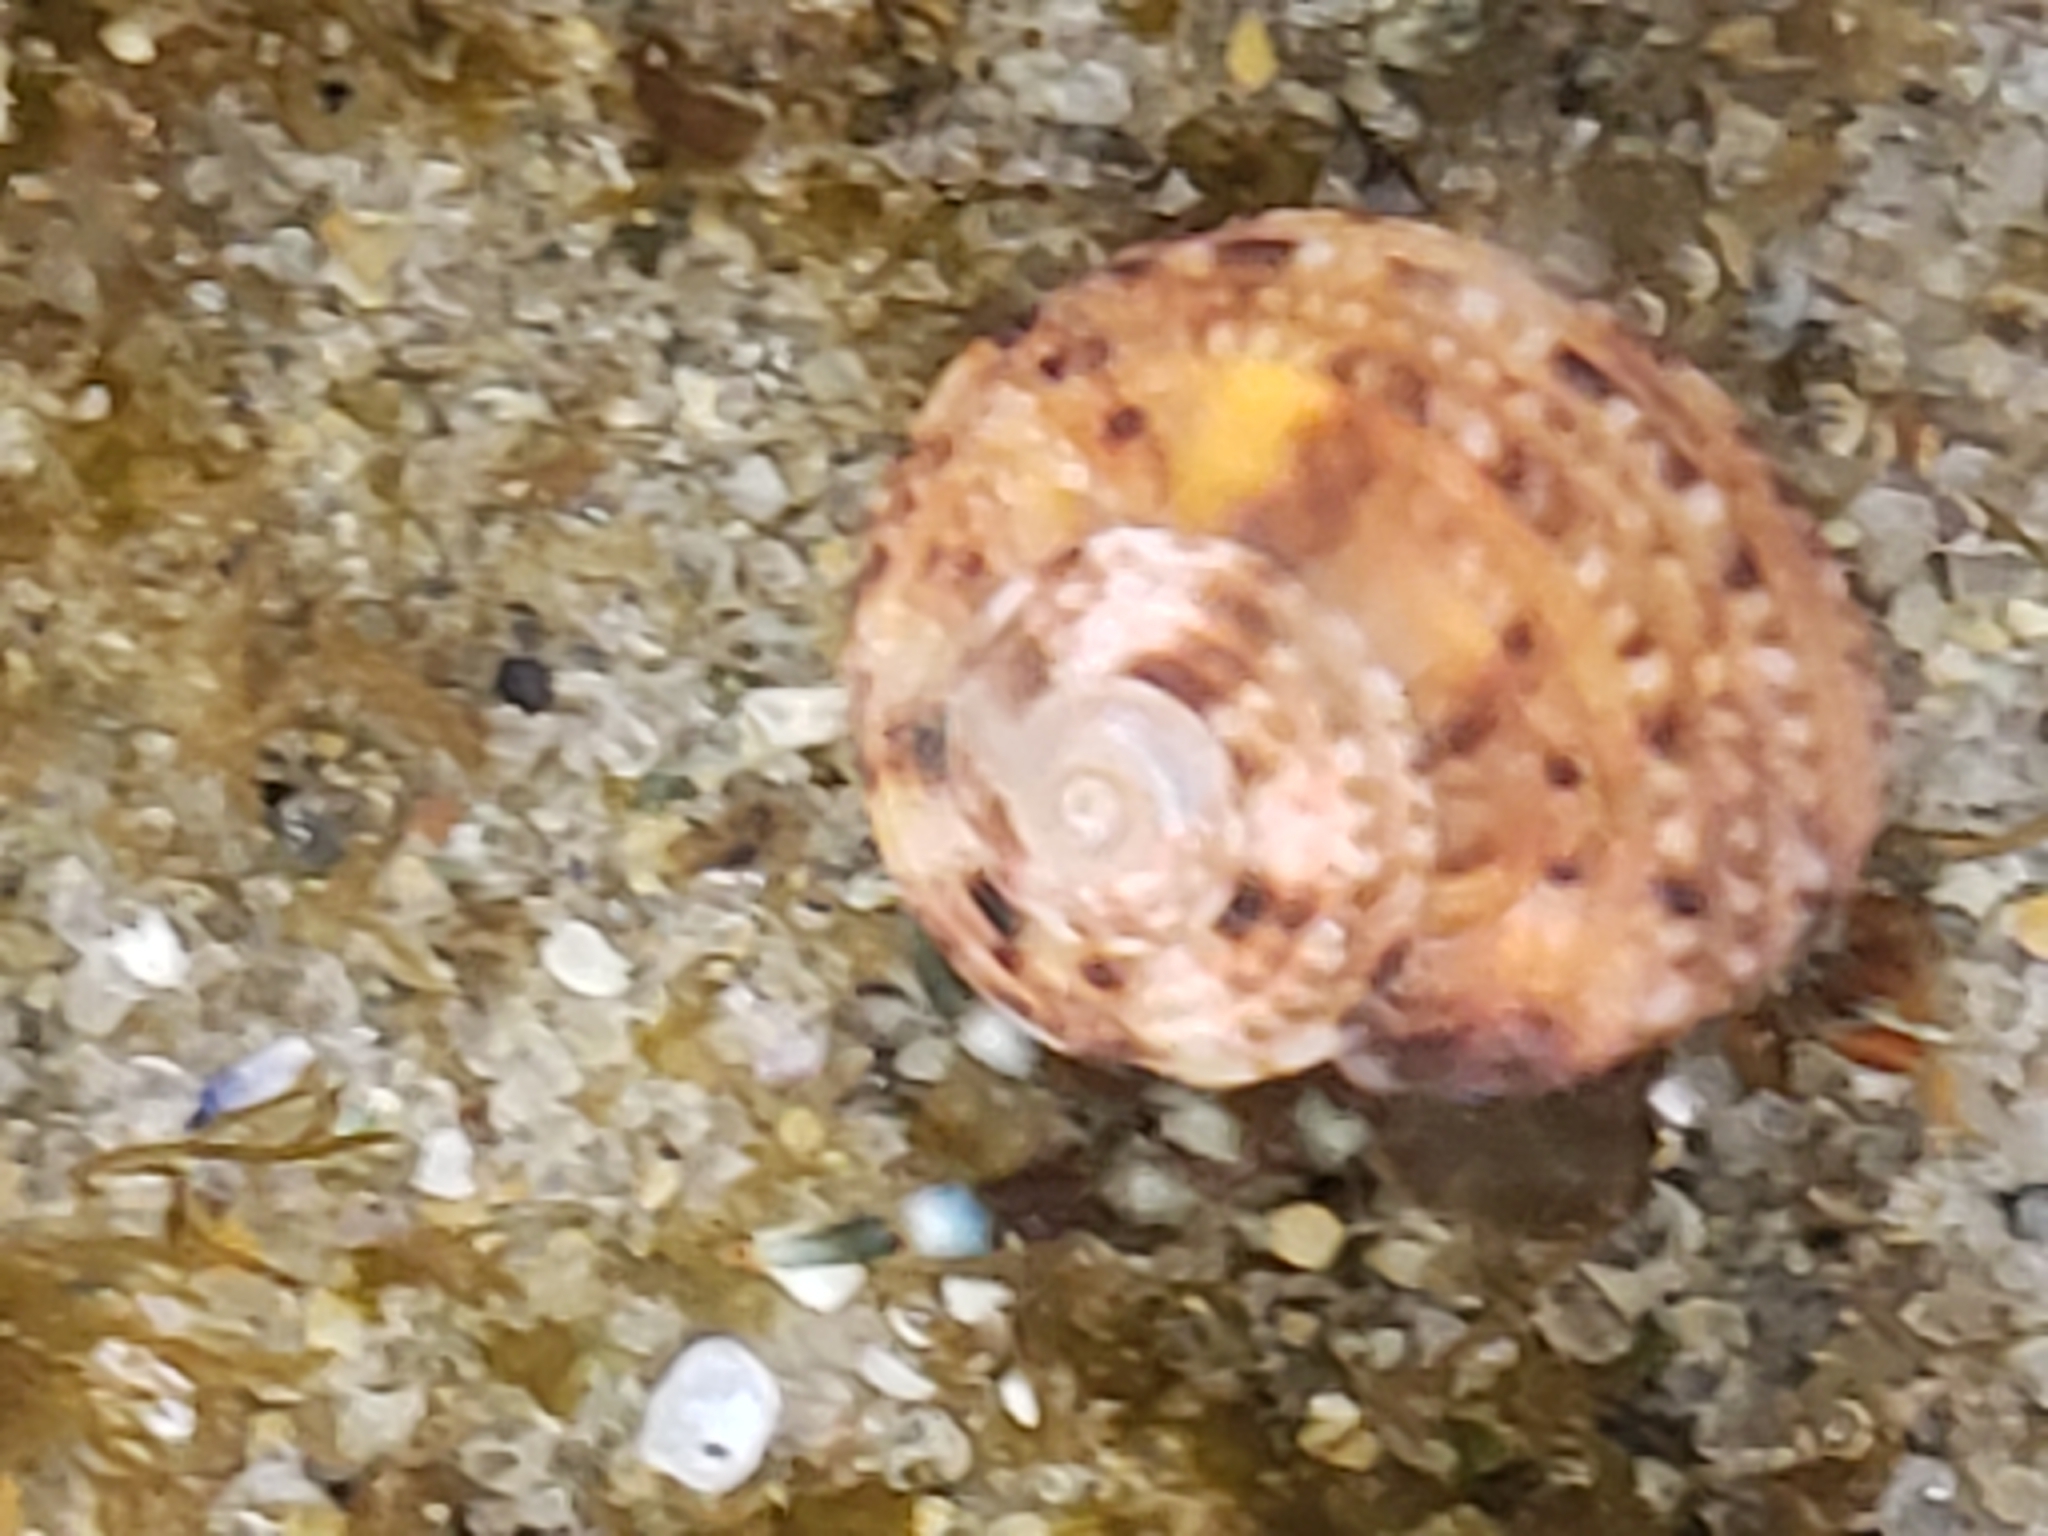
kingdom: Animalia
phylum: Mollusca
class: Gastropoda
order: Trochida
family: Tegulidae
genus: Tegula
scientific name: Tegula eiseni
